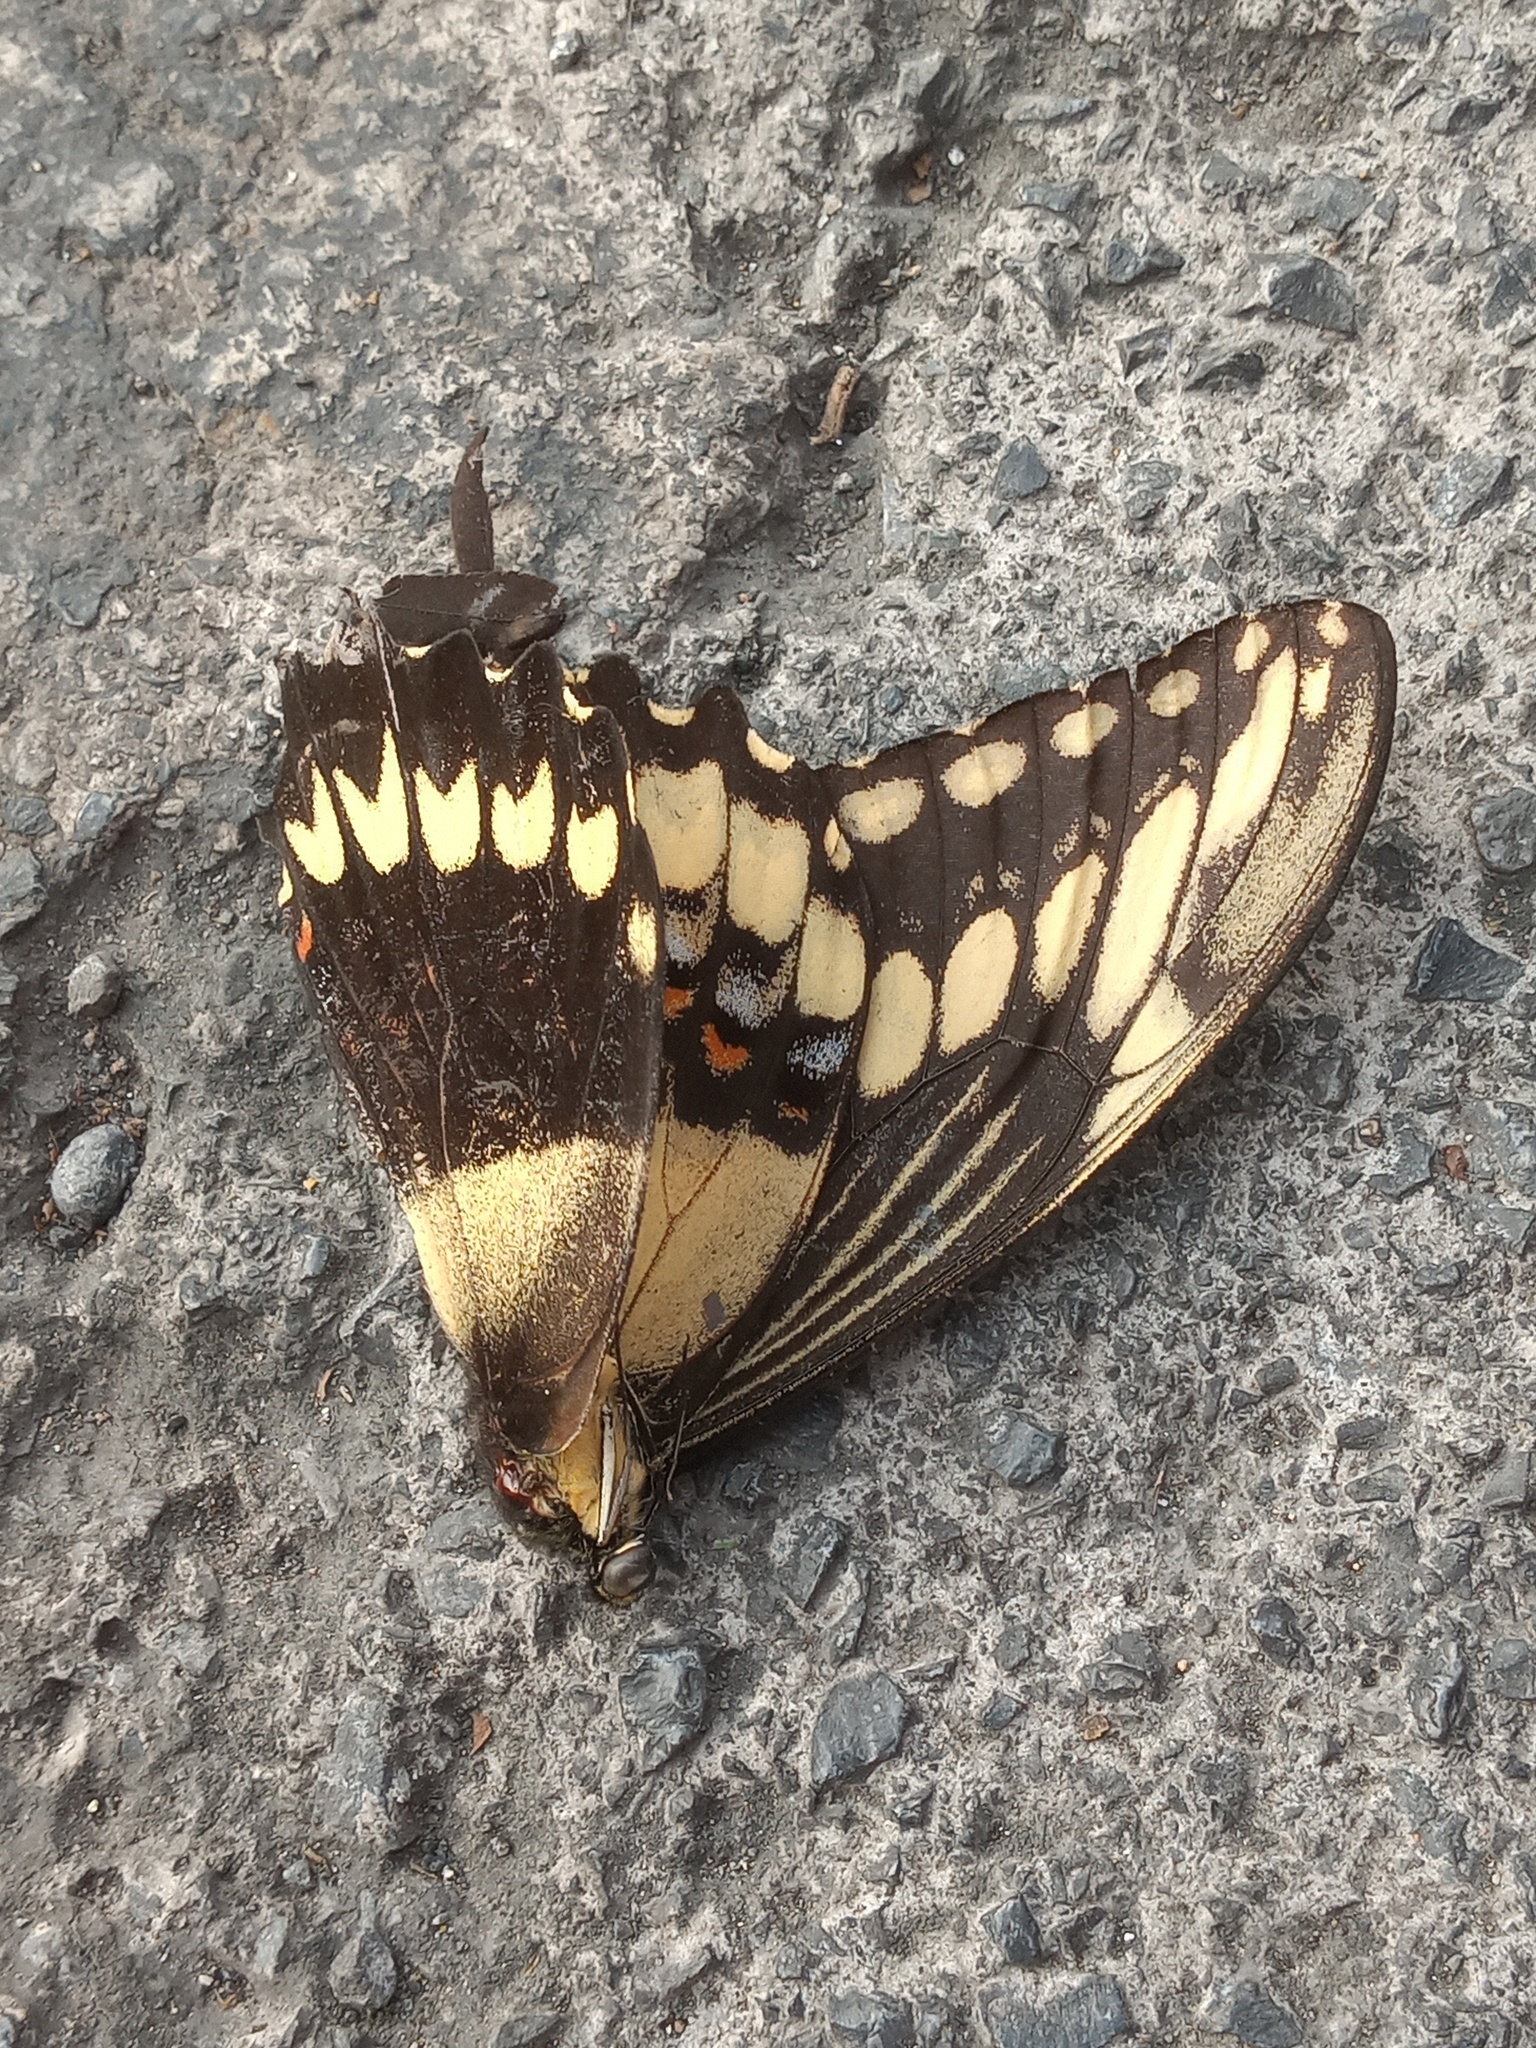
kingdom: Animalia
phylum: Arthropoda
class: Insecta
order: Lepidoptera
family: Papilionidae
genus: Papilio
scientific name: Papilio ornythion
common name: Ornythion swallowtail
